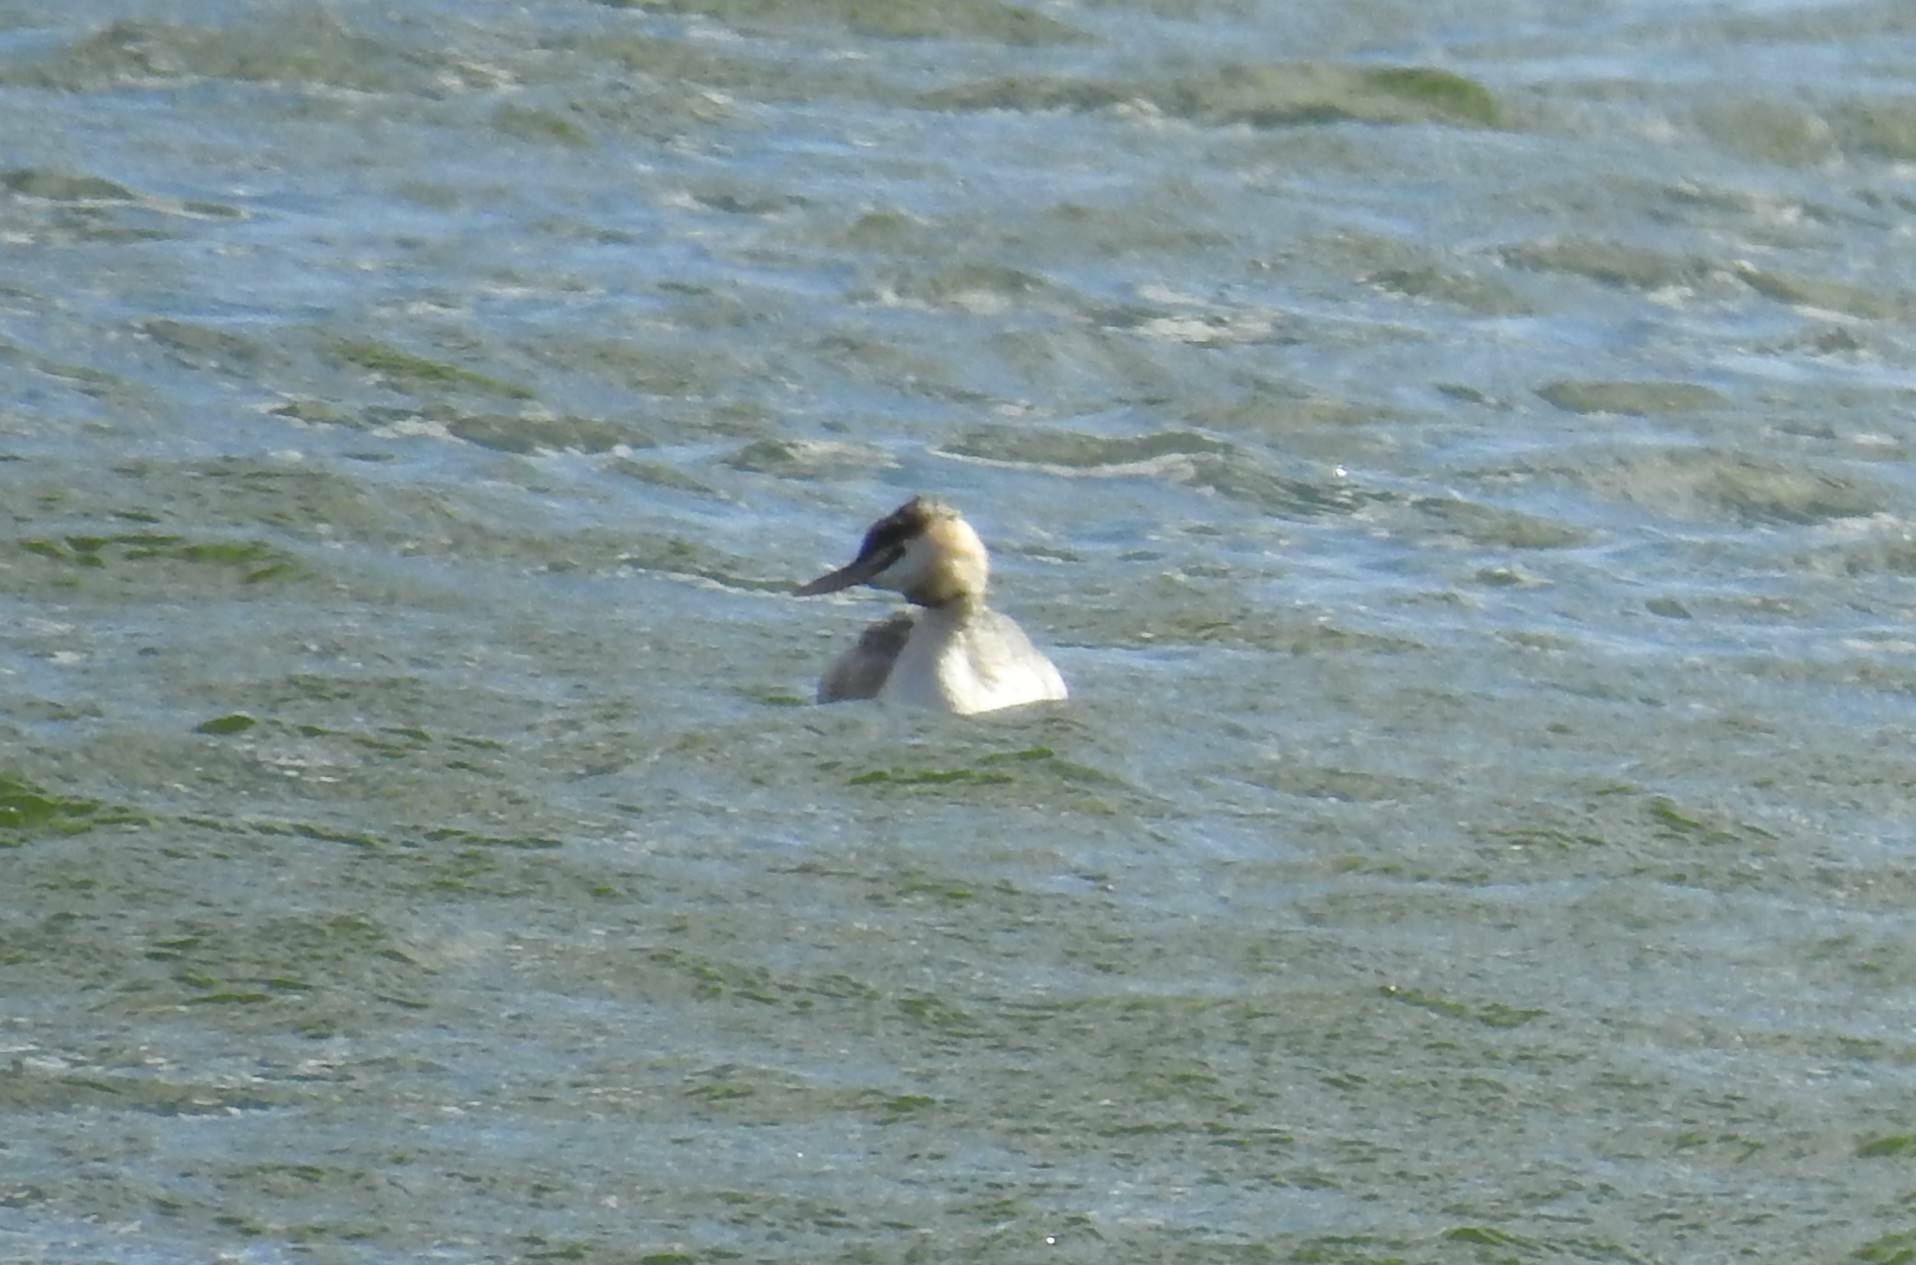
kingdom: Animalia
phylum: Chordata
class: Aves
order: Podicipediformes
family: Podicipedidae
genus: Podiceps
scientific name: Podiceps cristatus
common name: Great crested grebe
